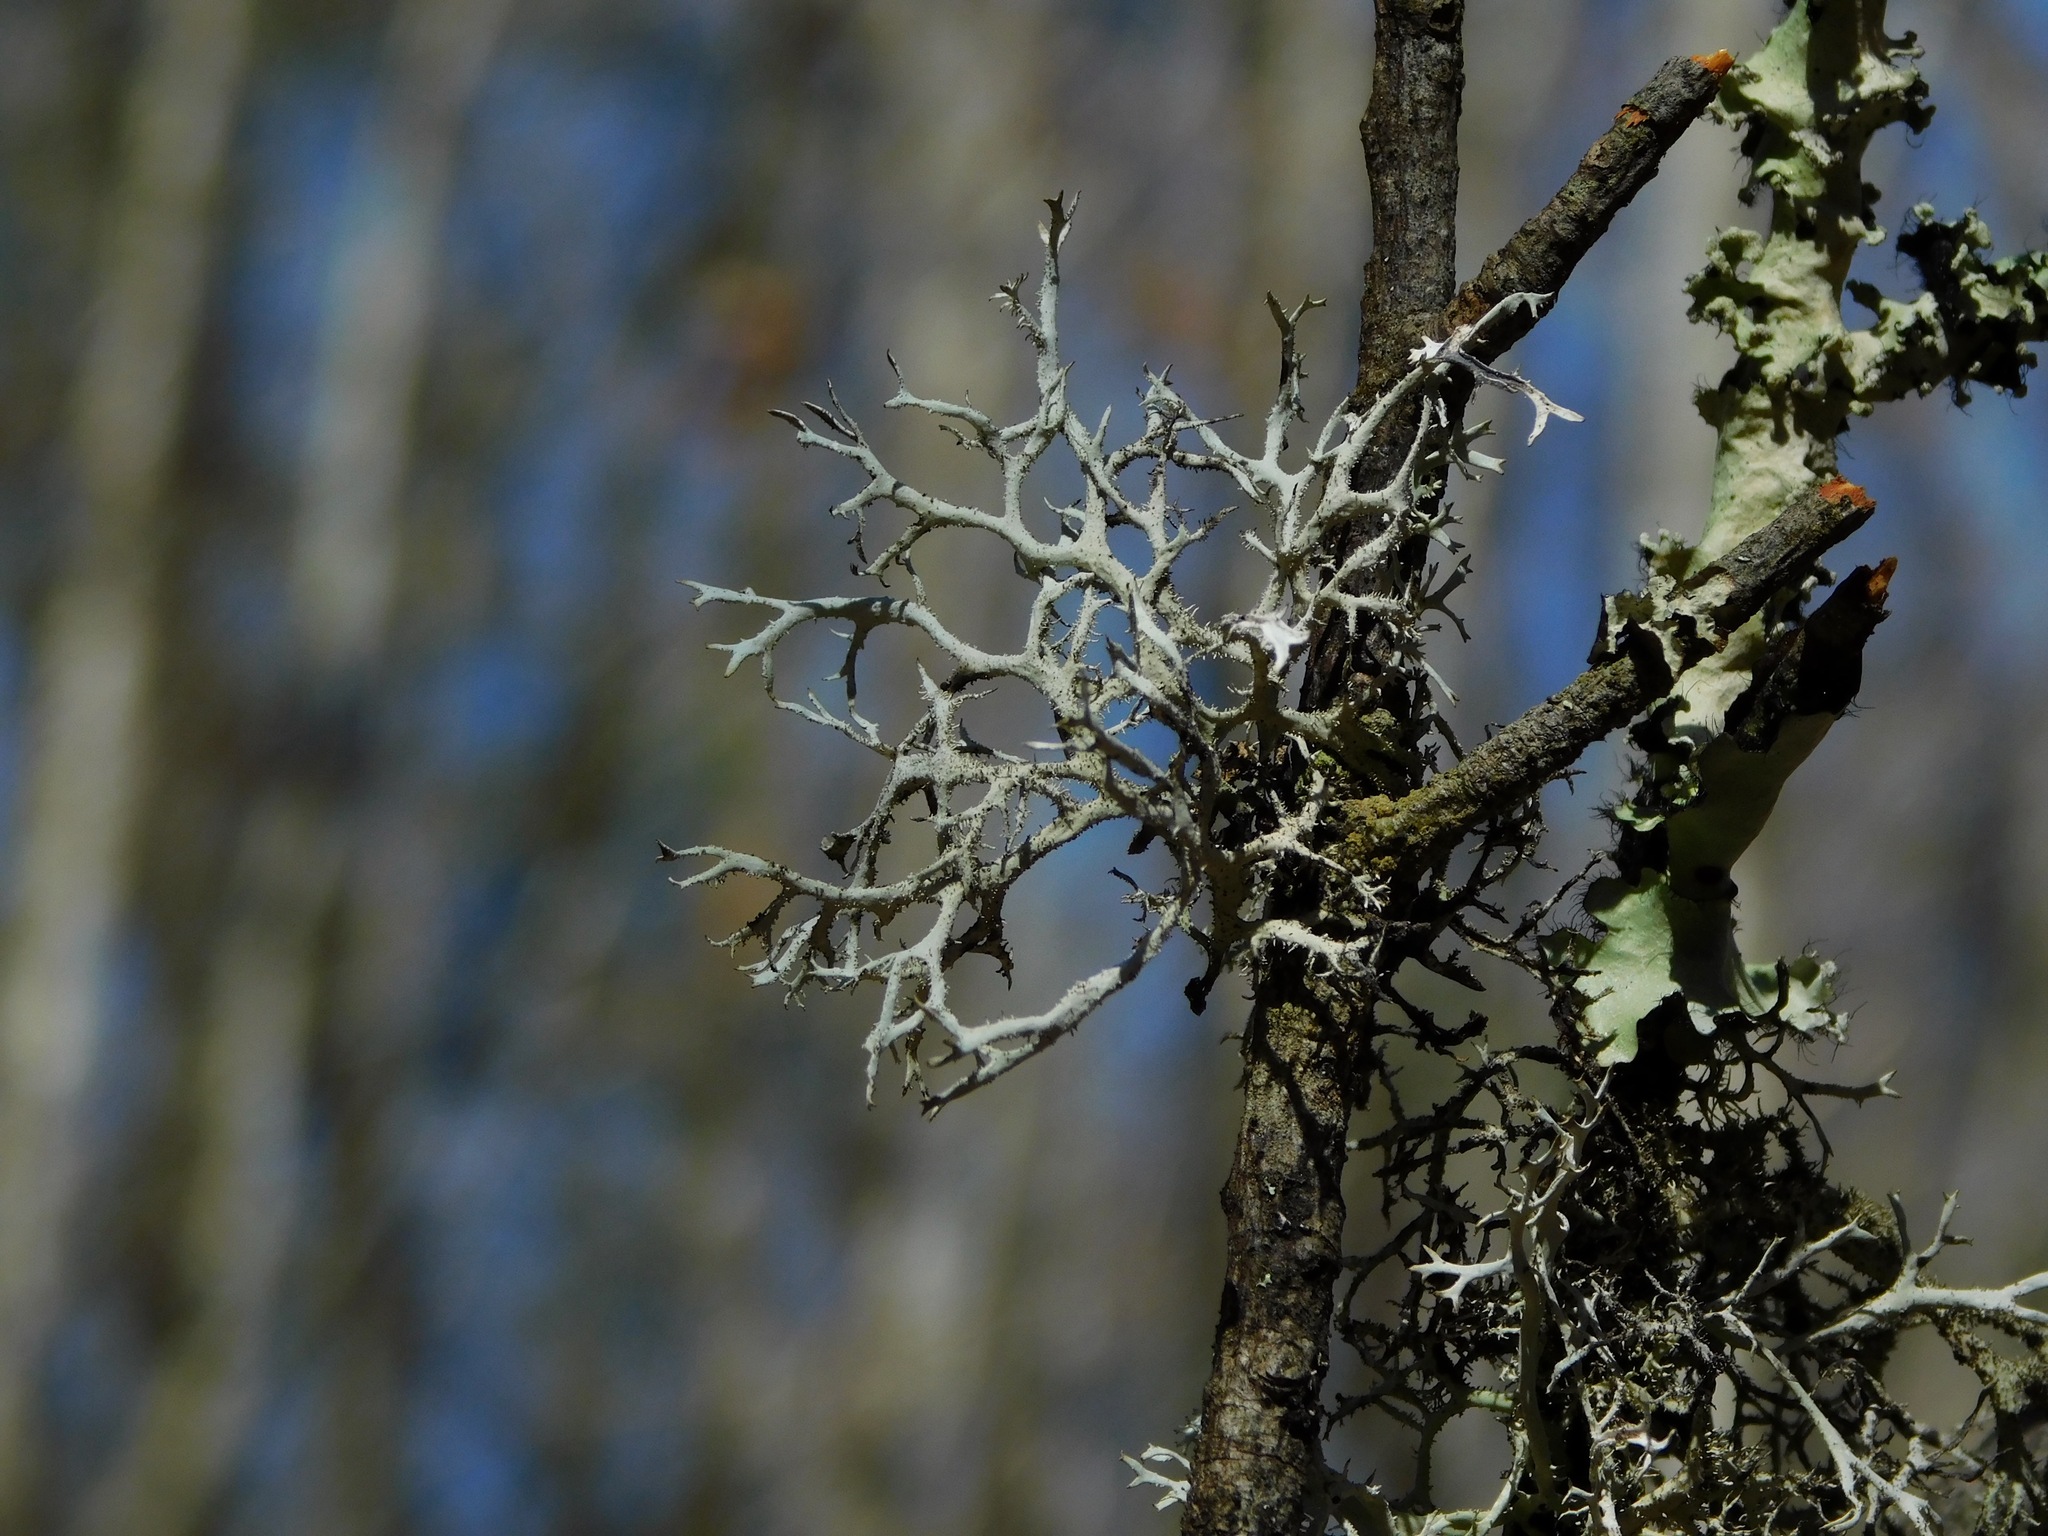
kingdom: Fungi
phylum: Ascomycota
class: Lecanoromycetes
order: Lecanorales
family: Parmeliaceae
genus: Pseudevernia
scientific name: Pseudevernia consocians
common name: Common antler lichen
